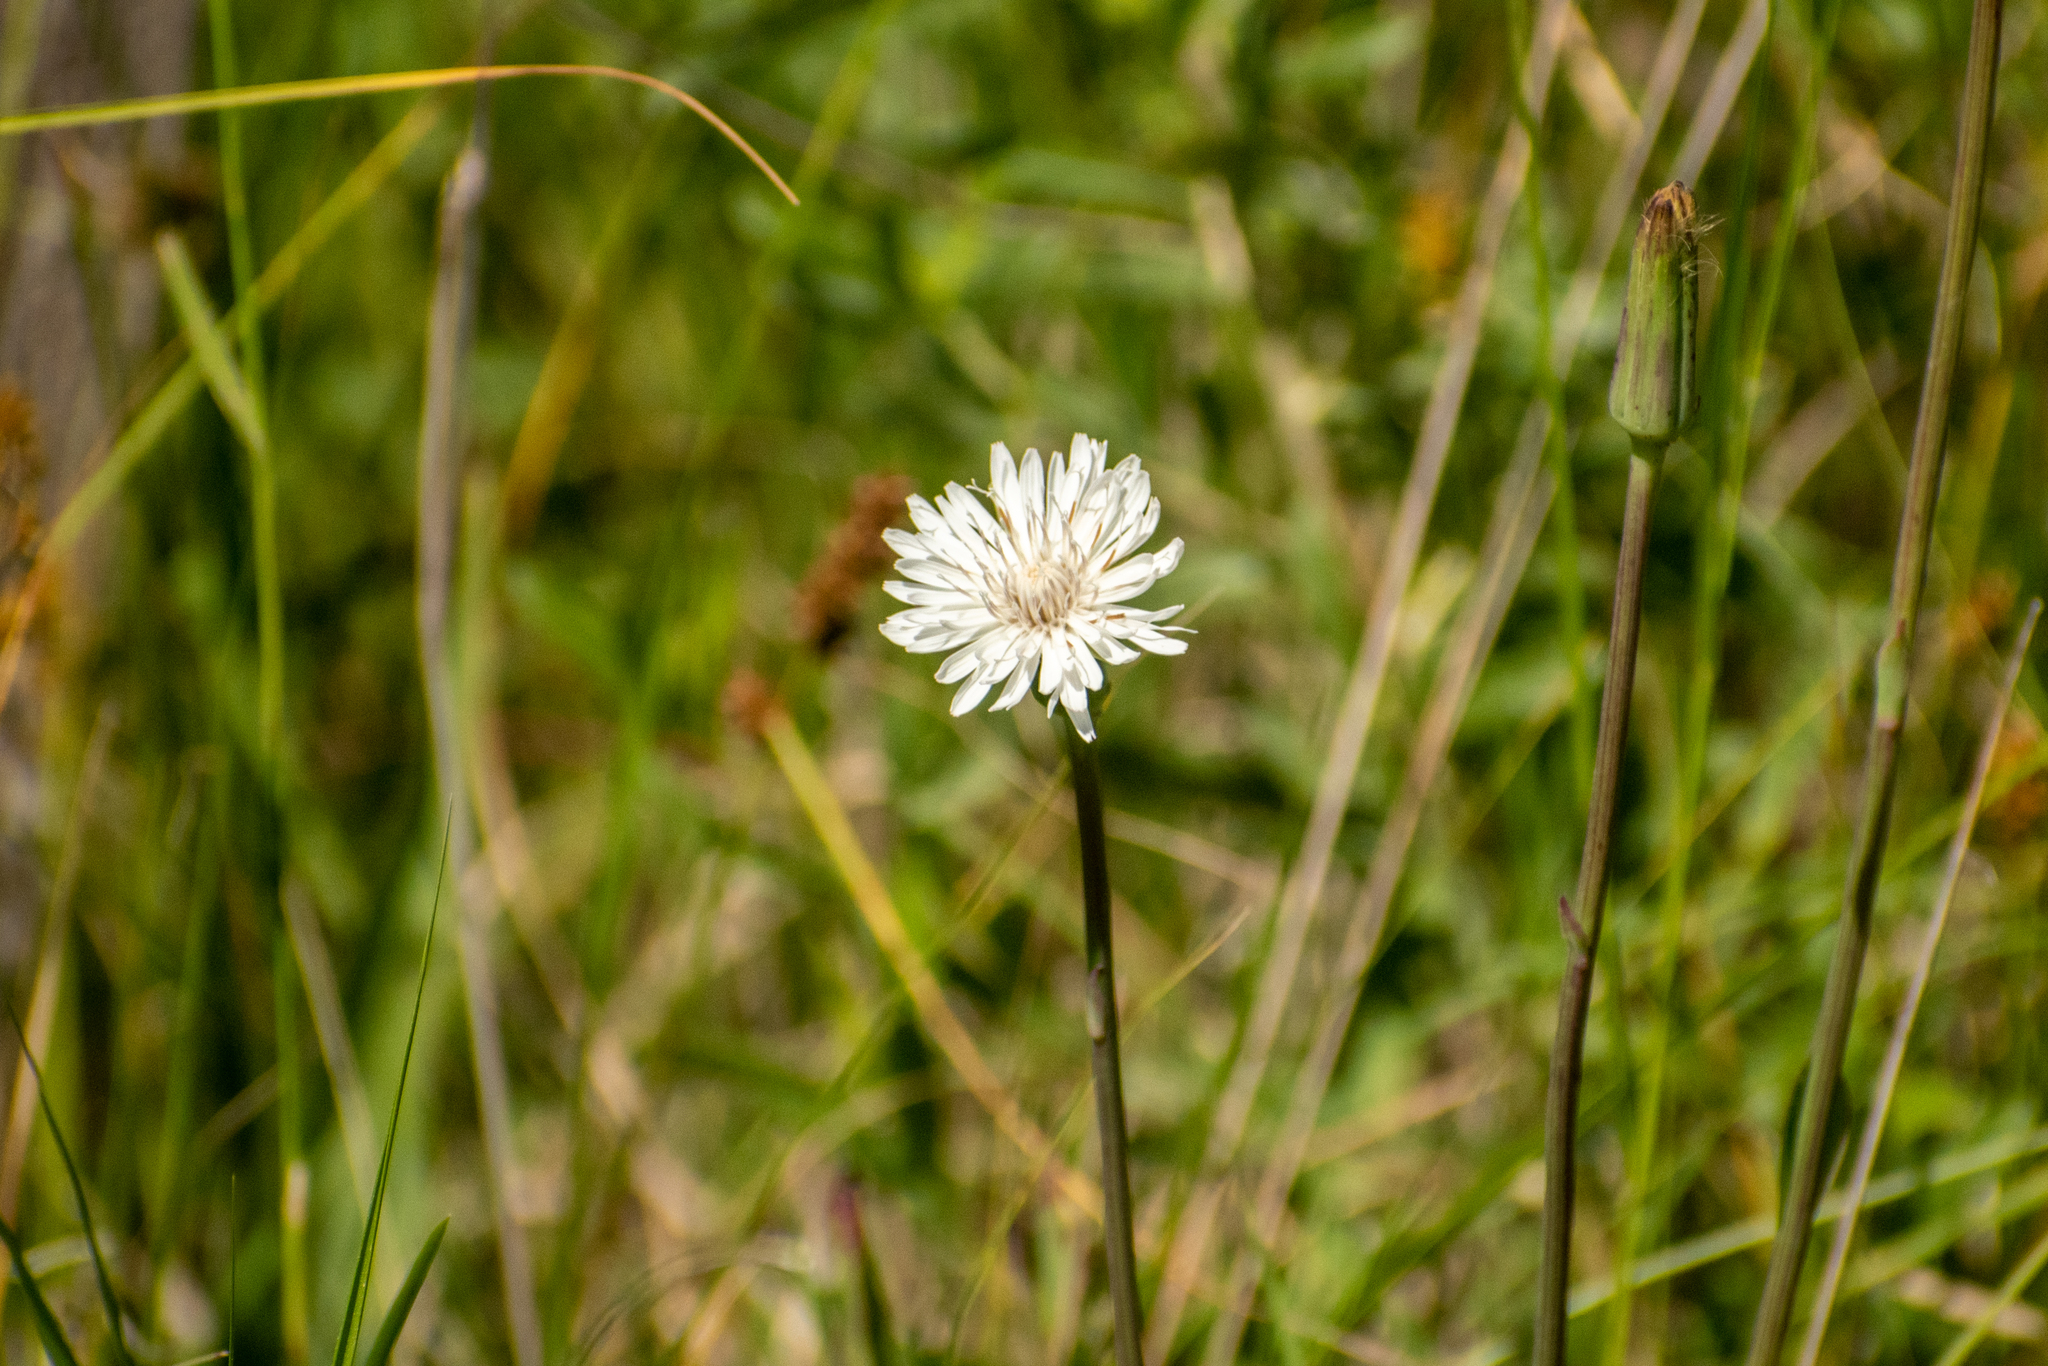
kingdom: Plantae
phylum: Tracheophyta
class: Magnoliopsida
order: Asterales
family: Asteraceae
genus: Picrosia
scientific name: Picrosia longifolia
